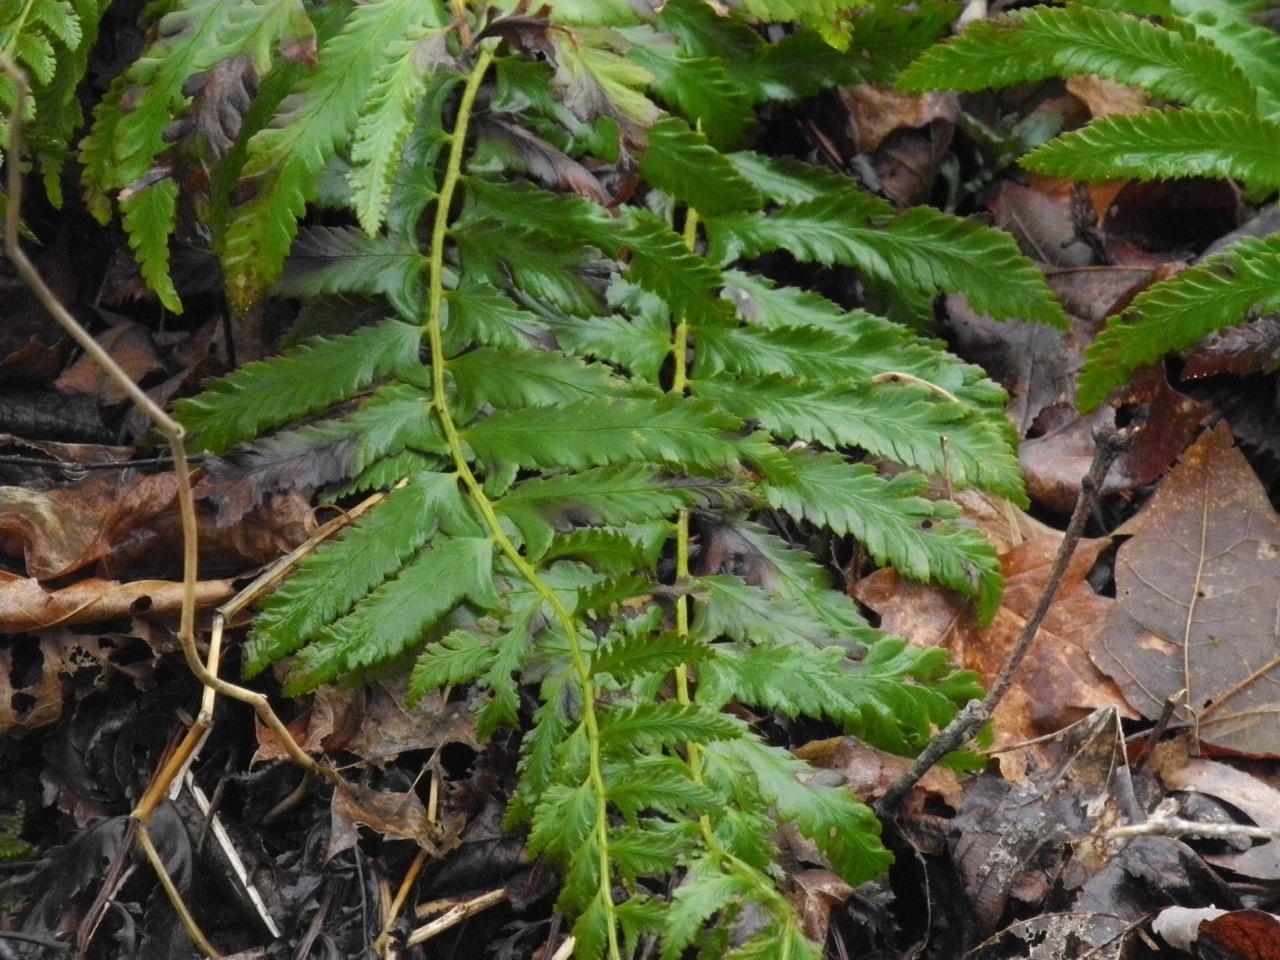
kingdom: Plantae
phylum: Tracheophyta
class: Polypodiopsida
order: Polypodiales
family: Dryopteridaceae
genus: Polystichum
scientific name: Polystichum acrostichoides
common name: Christmas fern
